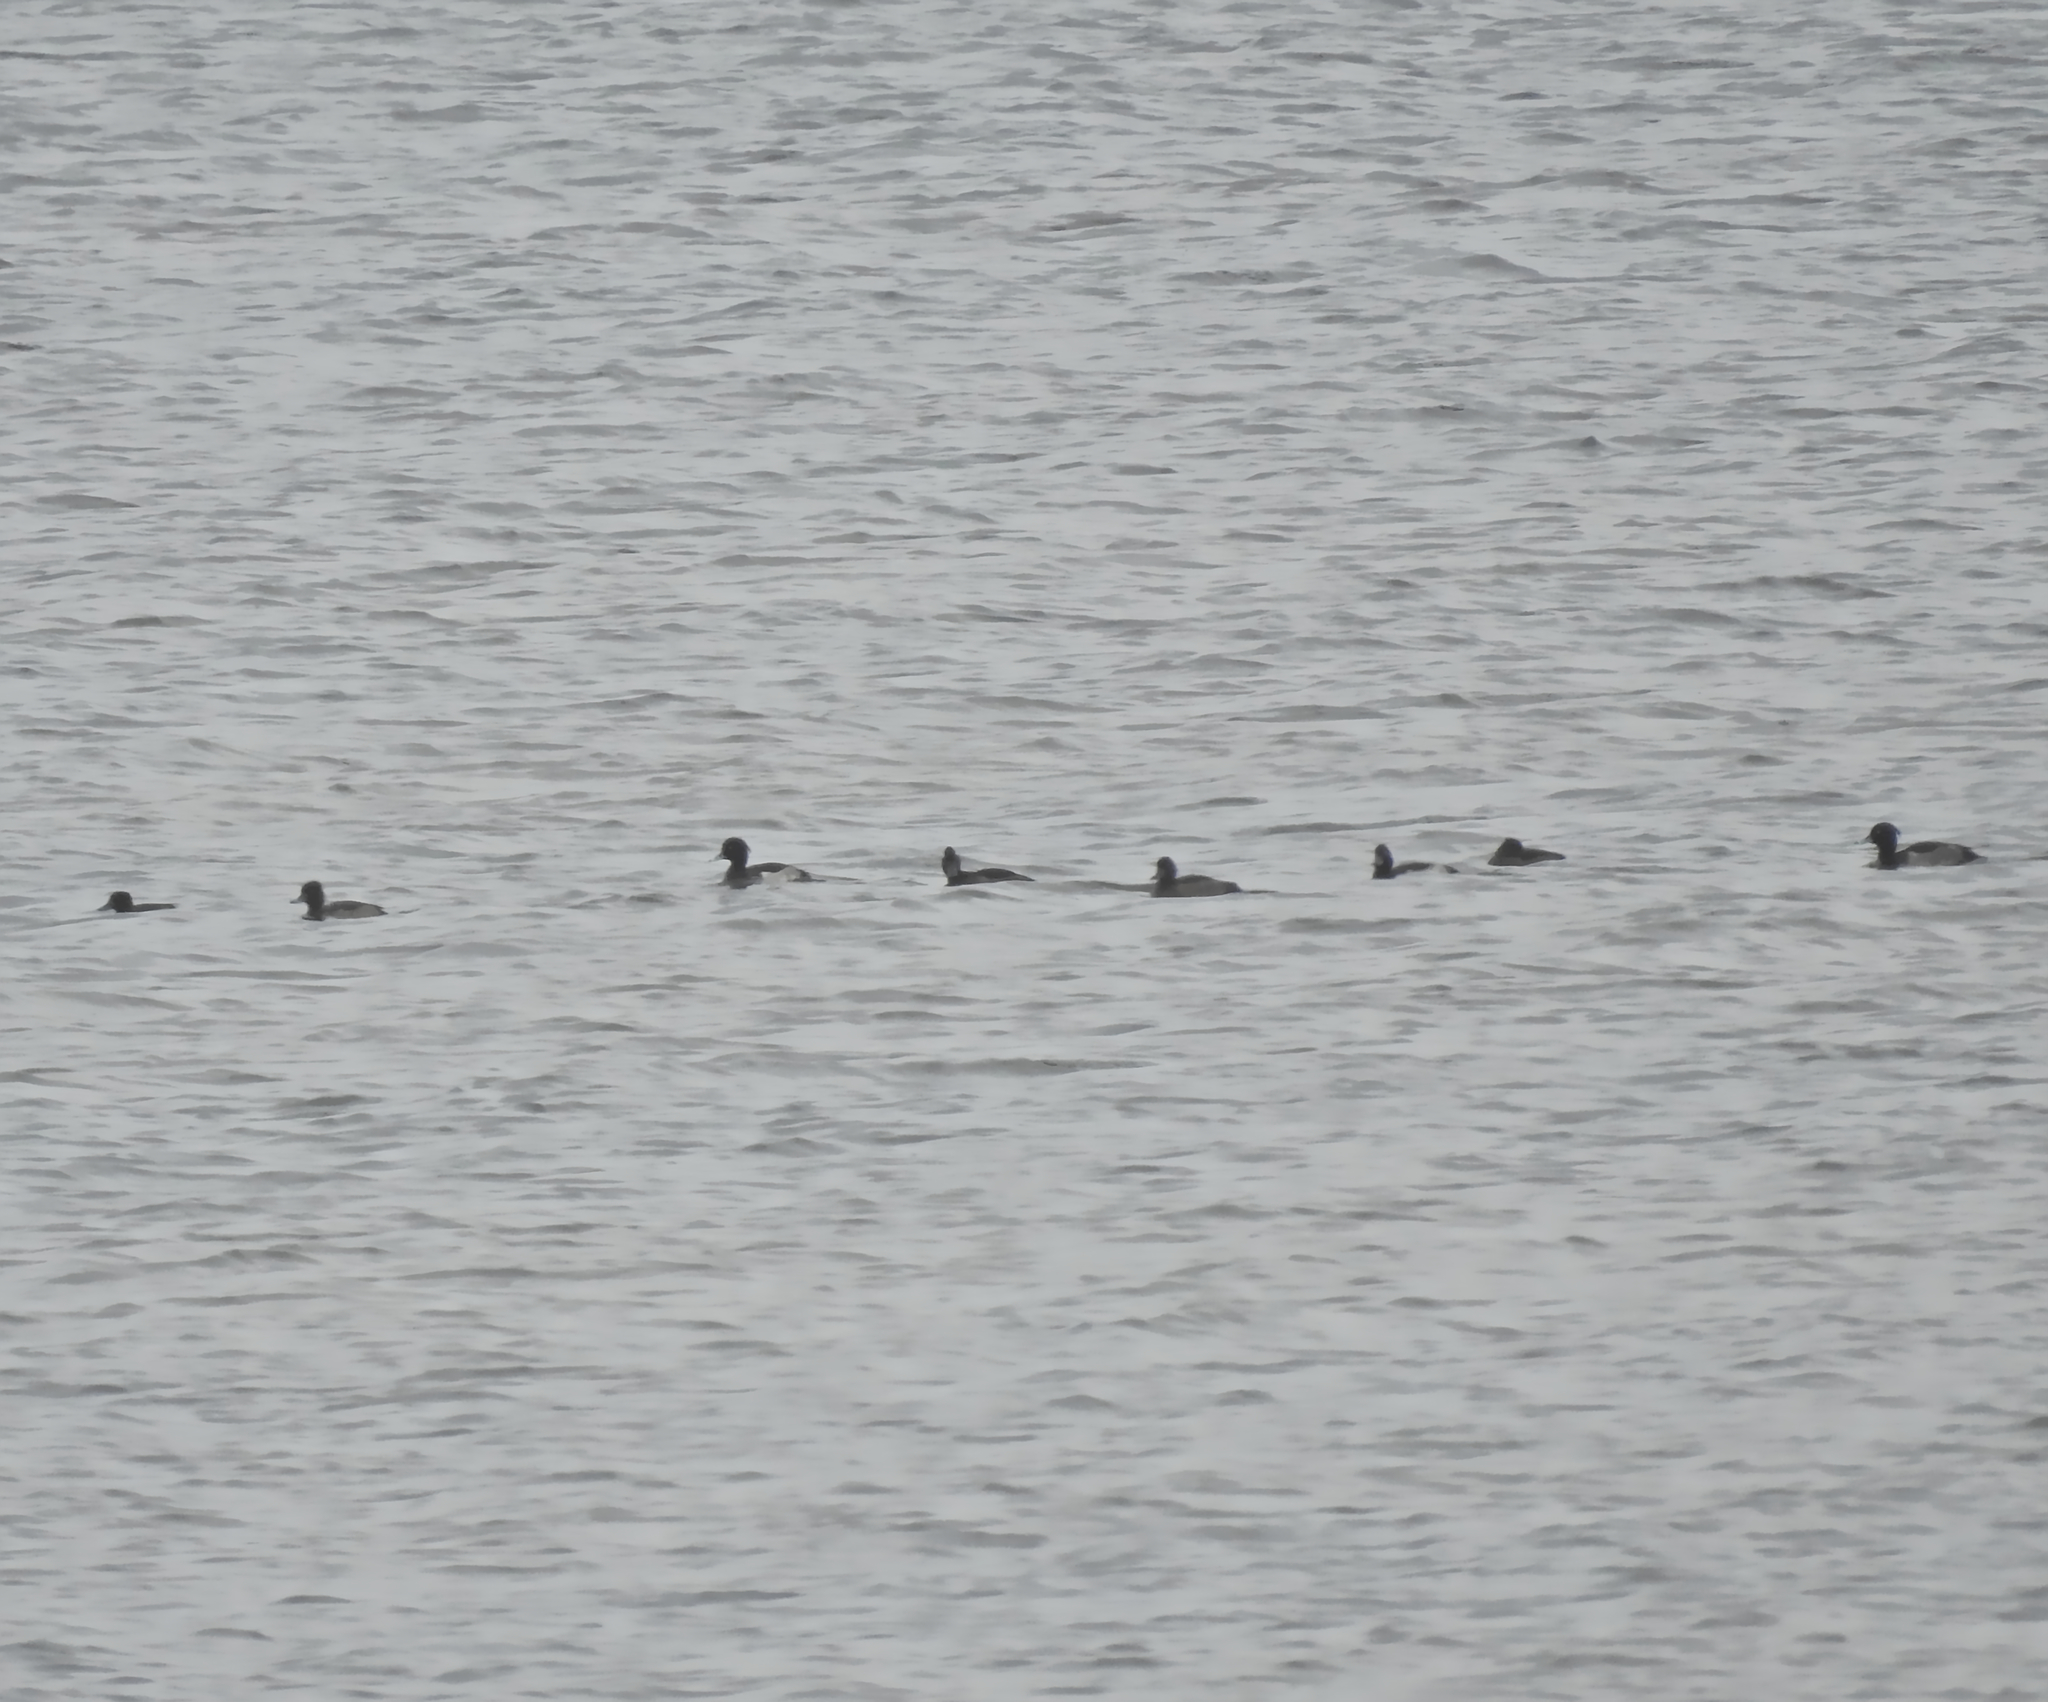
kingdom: Animalia
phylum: Chordata
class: Aves
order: Anseriformes
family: Anatidae
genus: Aythya
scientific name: Aythya fuligula
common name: Tufted duck
